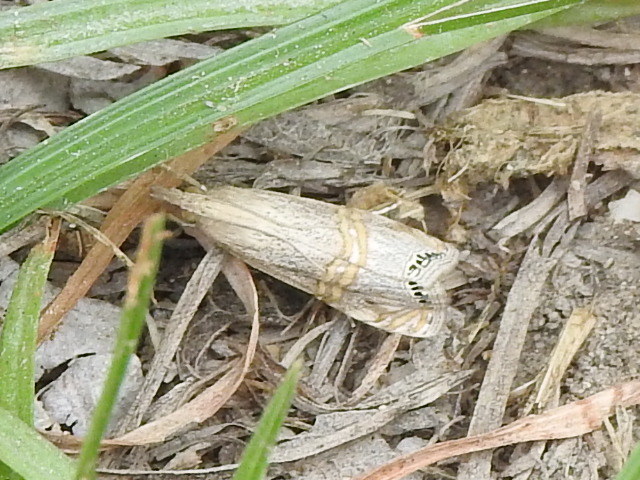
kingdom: Animalia
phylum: Arthropoda
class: Insecta
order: Lepidoptera
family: Crambidae
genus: Euchromius
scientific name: Euchromius ocellea
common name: Necklace veneer moth
